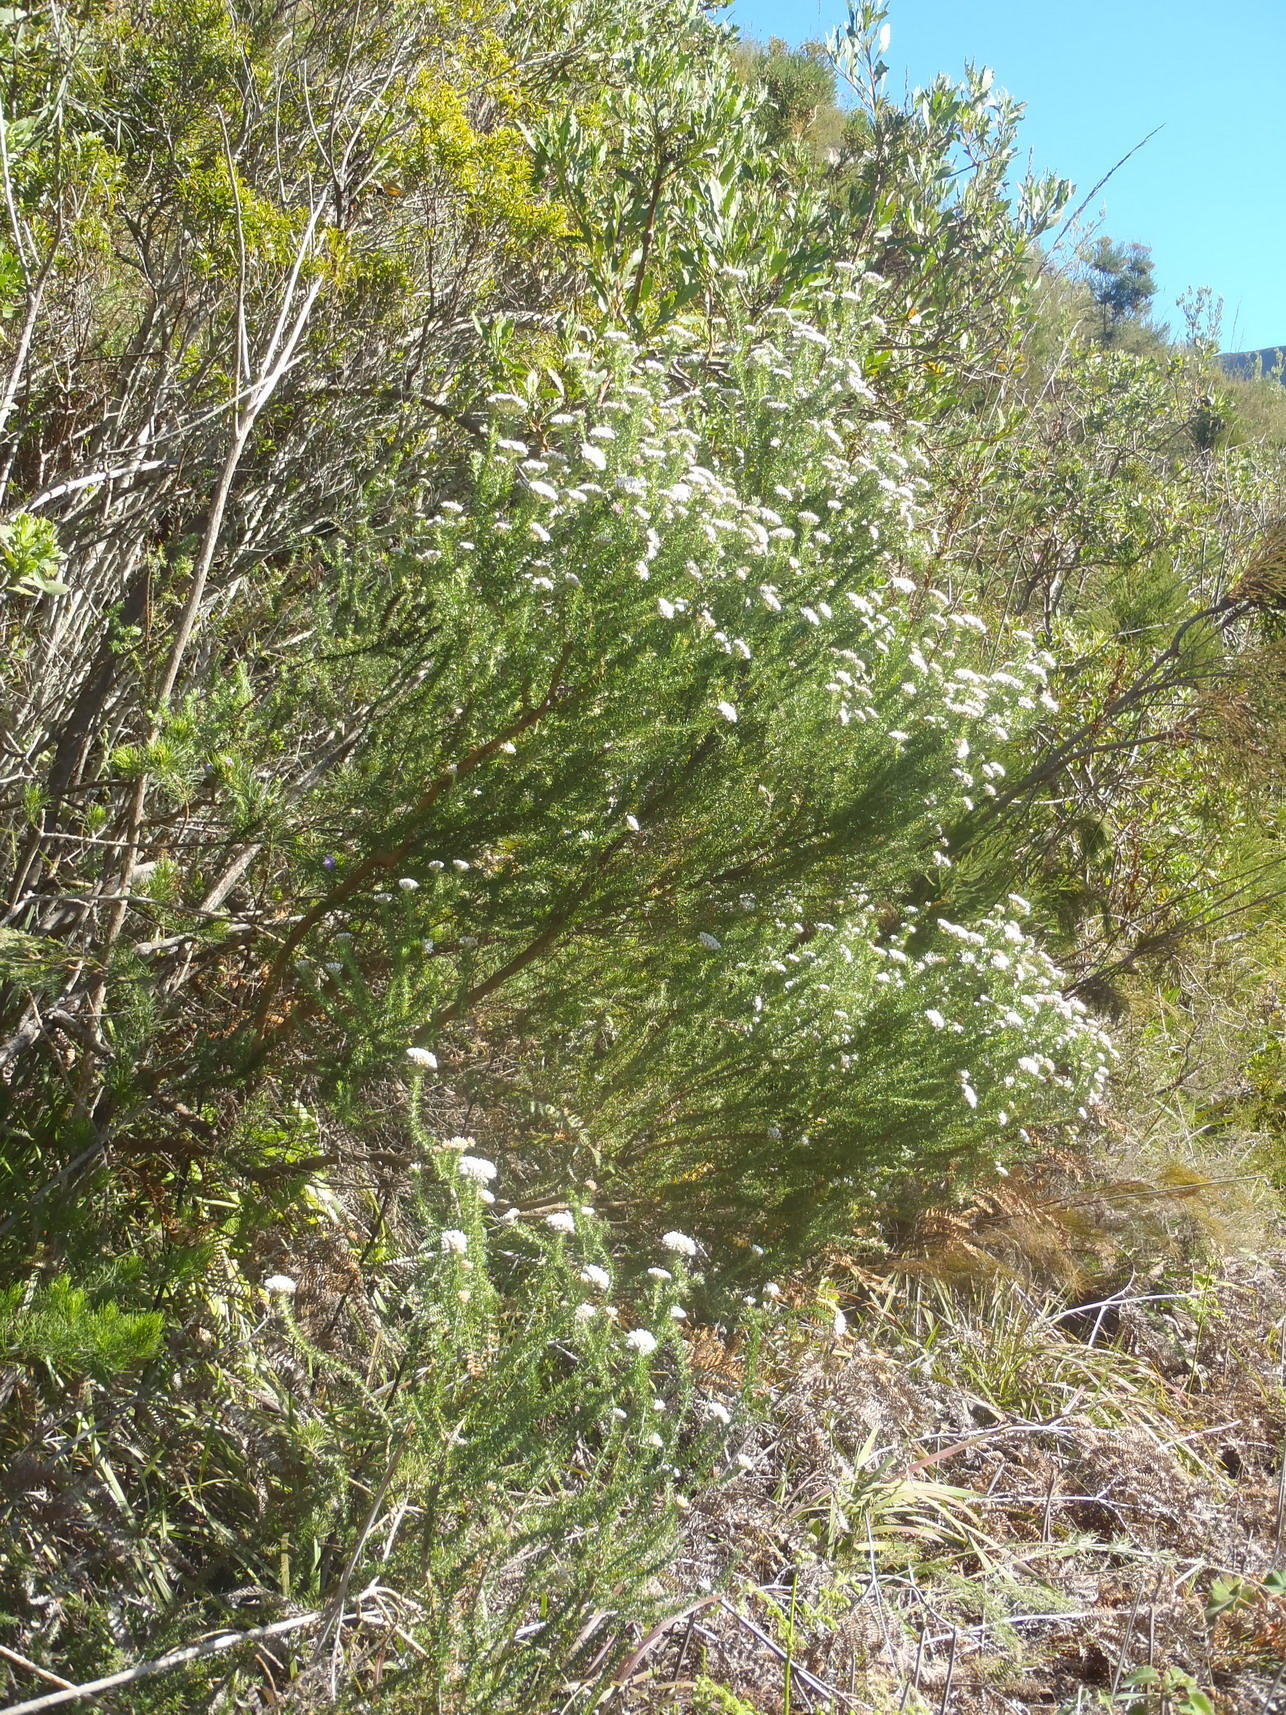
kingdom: Plantae
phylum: Tracheophyta
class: Magnoliopsida
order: Asterales
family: Asteraceae
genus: Metalasia
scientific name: Metalasia densa
